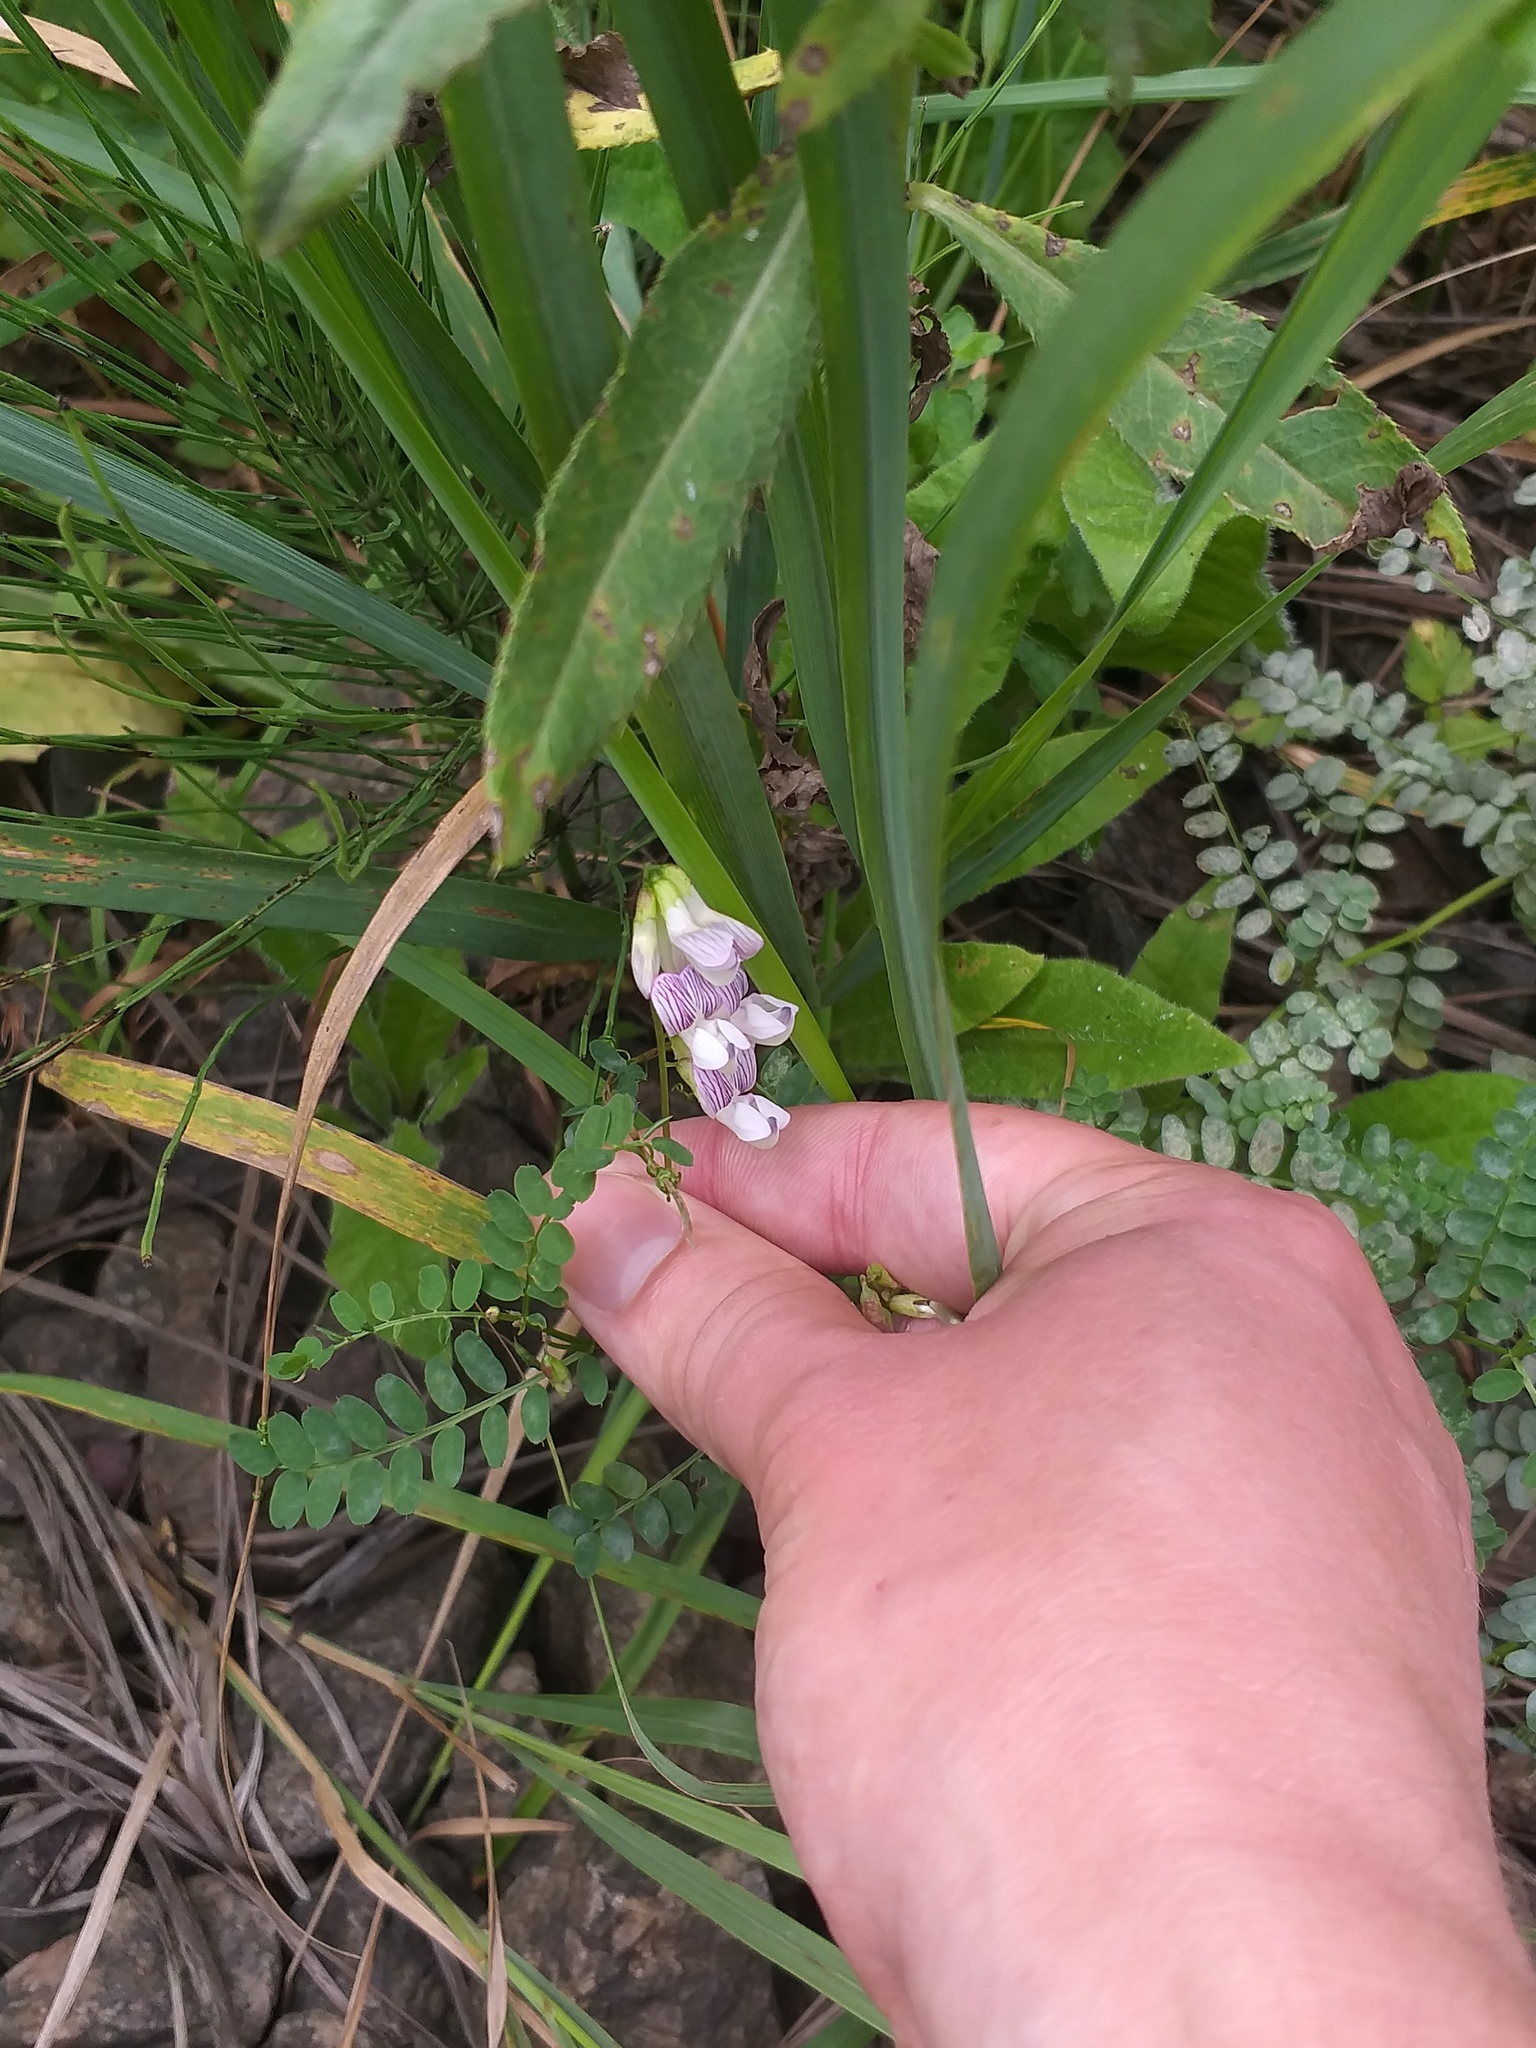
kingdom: Plantae
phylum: Tracheophyta
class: Magnoliopsida
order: Fabales
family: Fabaceae
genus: Vicia
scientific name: Vicia sylvatica
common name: Wood vetch
